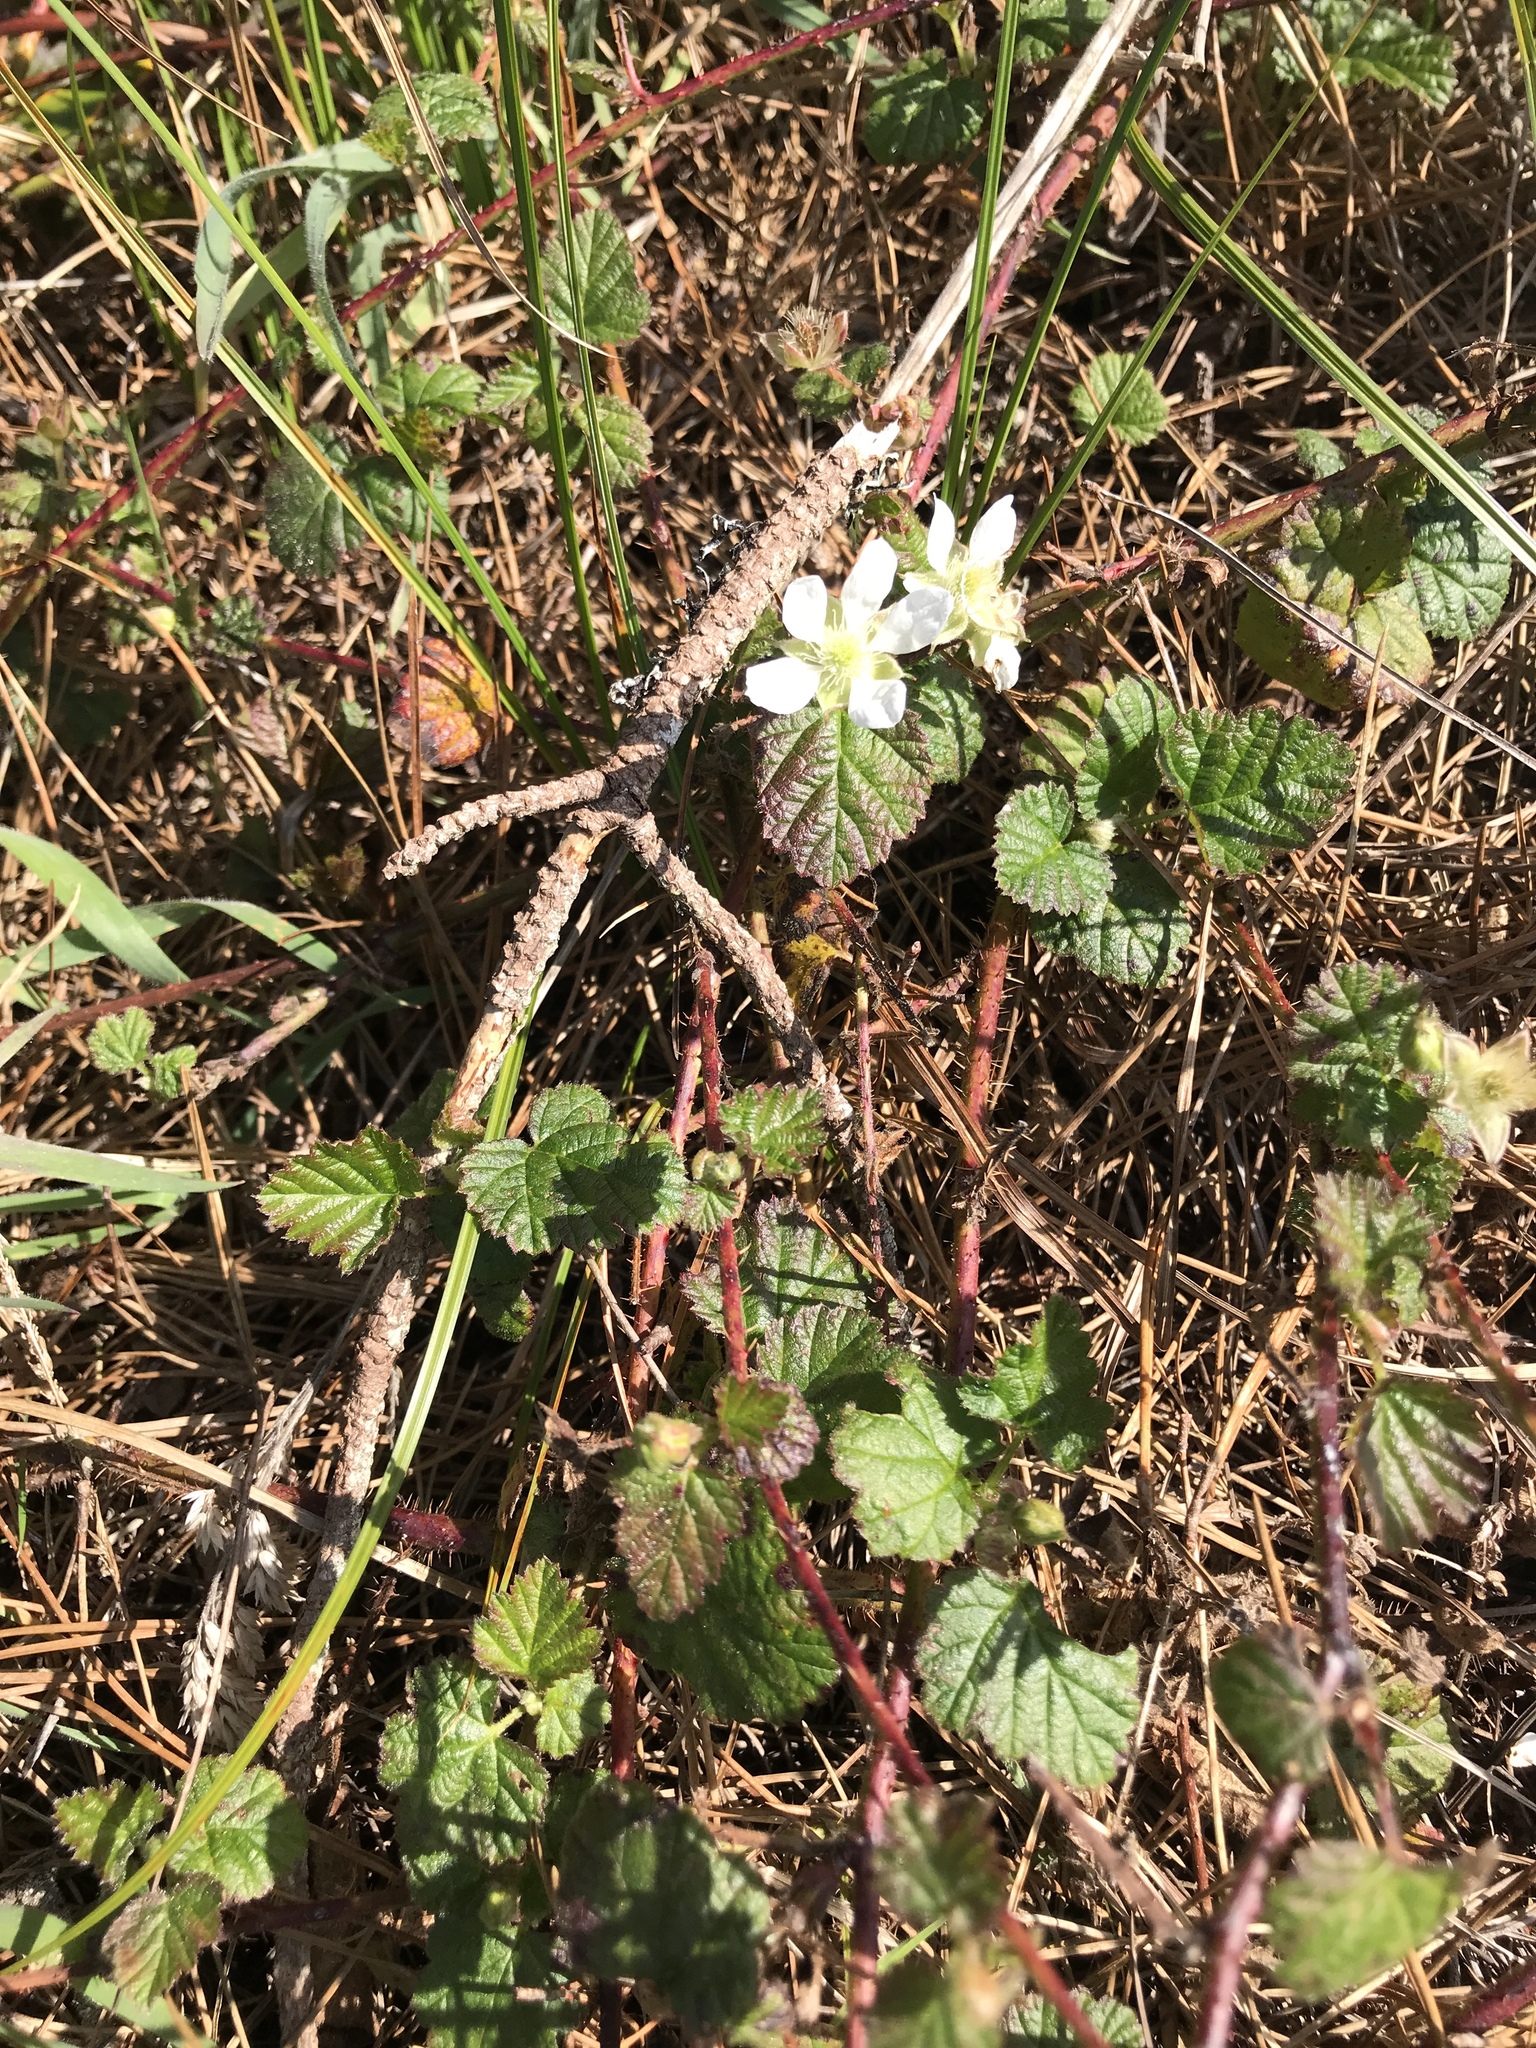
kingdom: Plantae
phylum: Tracheophyta
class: Magnoliopsida
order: Rosales
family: Rosaceae
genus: Rubus
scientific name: Rubus ursinus
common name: Pacific blackberry
